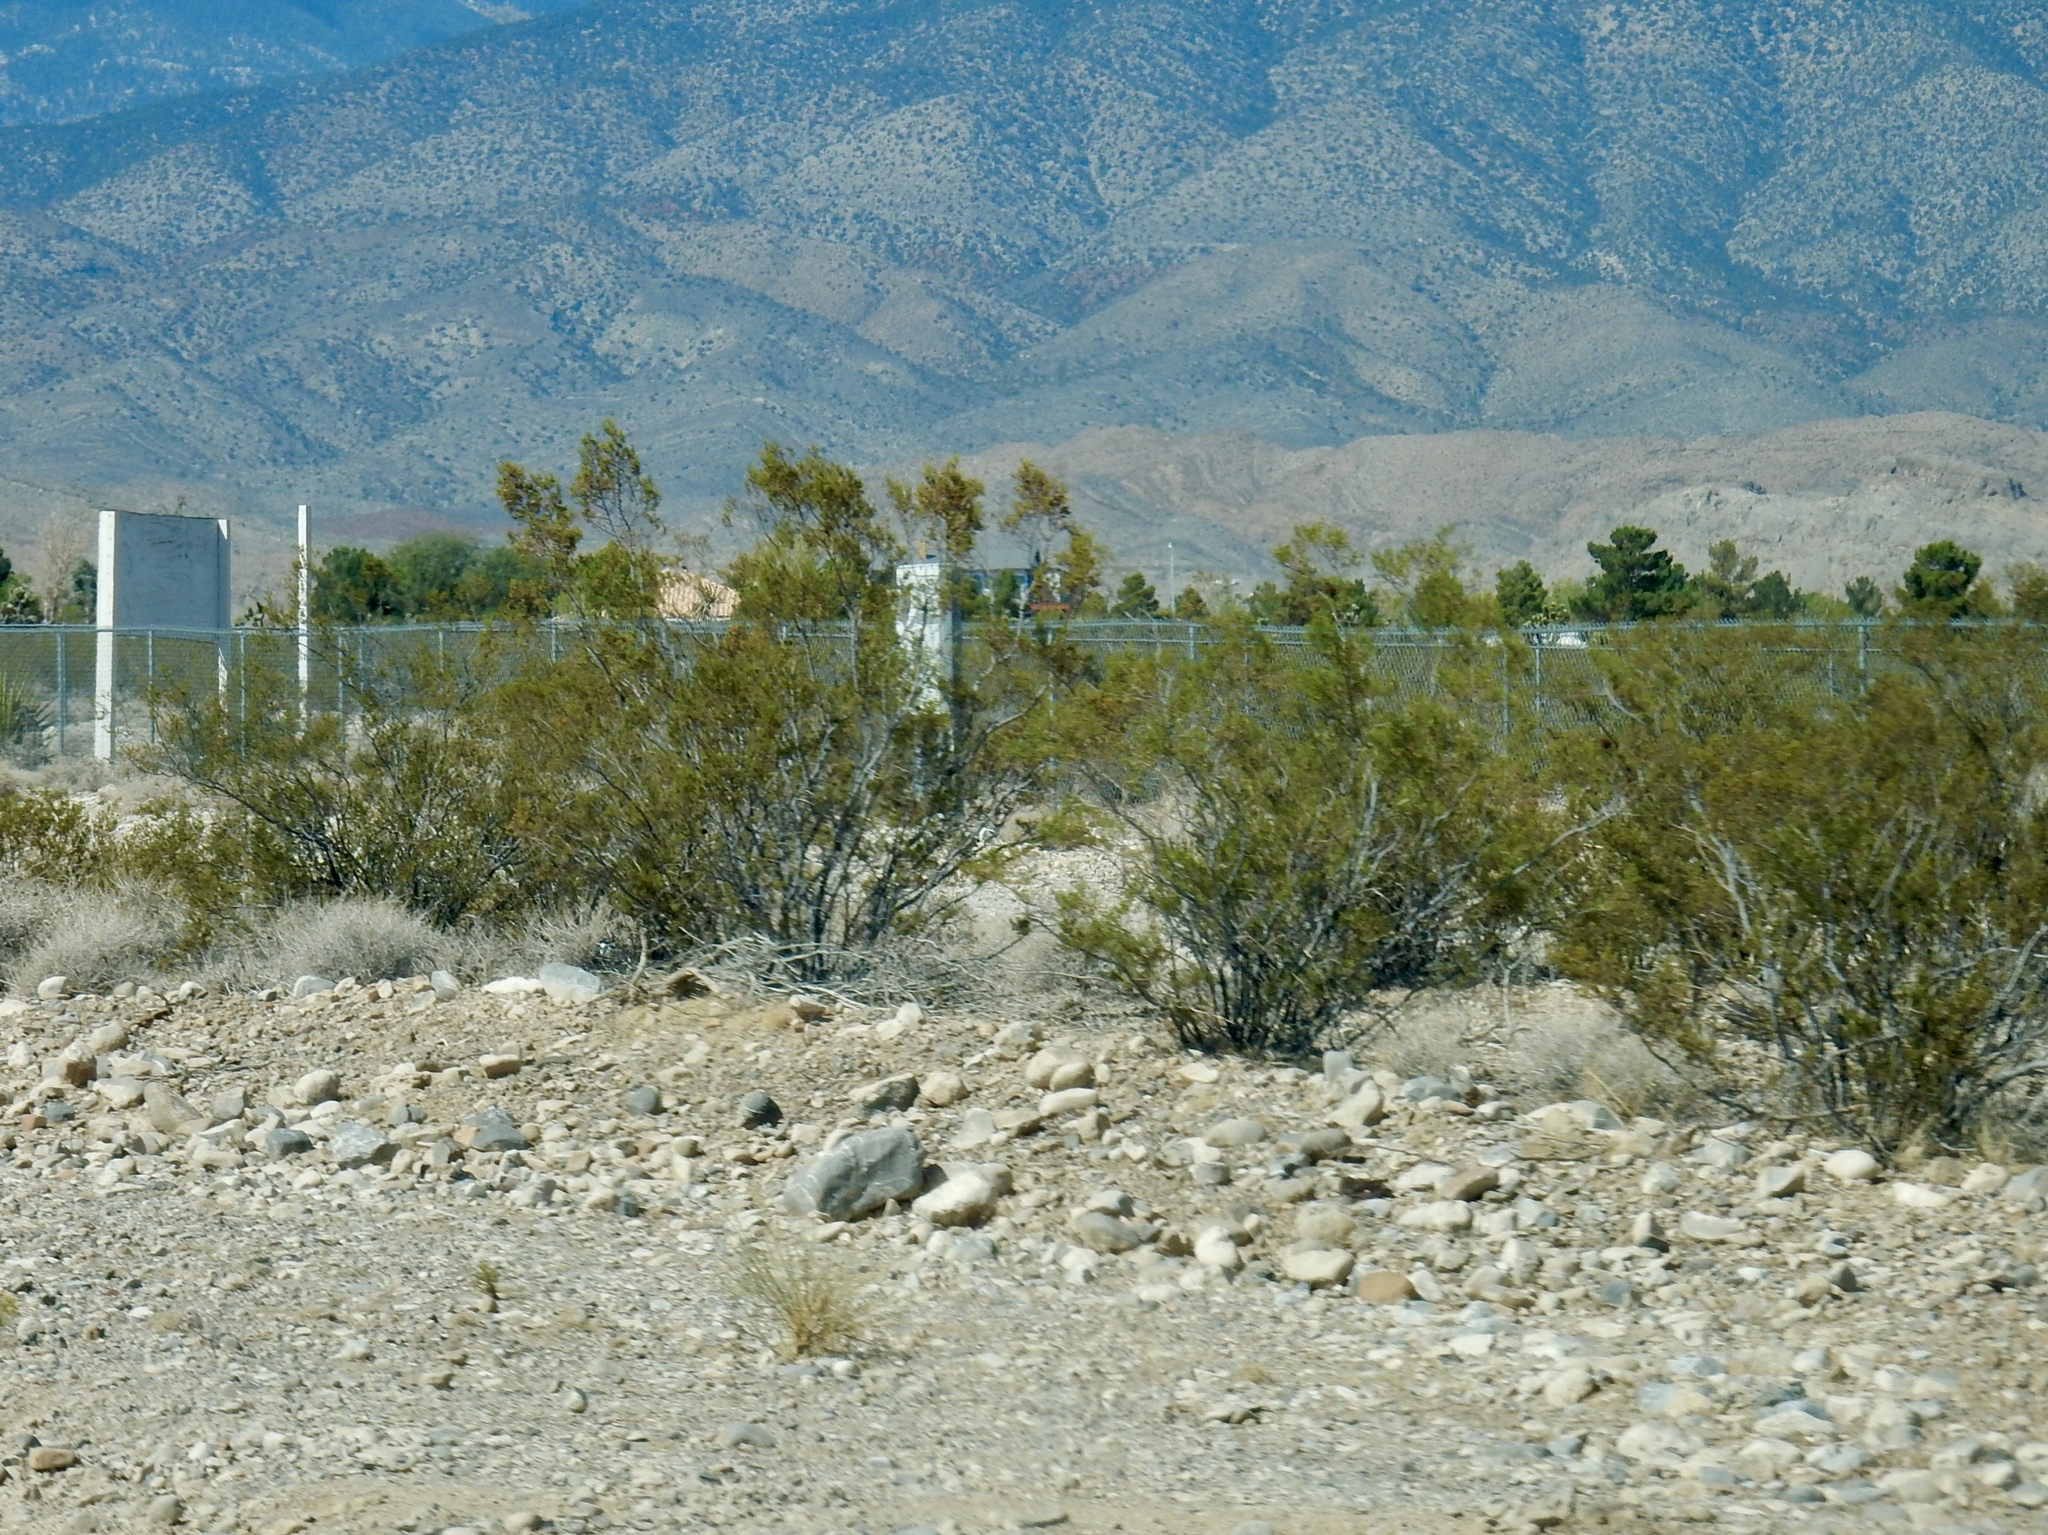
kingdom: Plantae
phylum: Tracheophyta
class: Magnoliopsida
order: Zygophyllales
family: Zygophyllaceae
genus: Larrea
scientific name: Larrea tridentata
